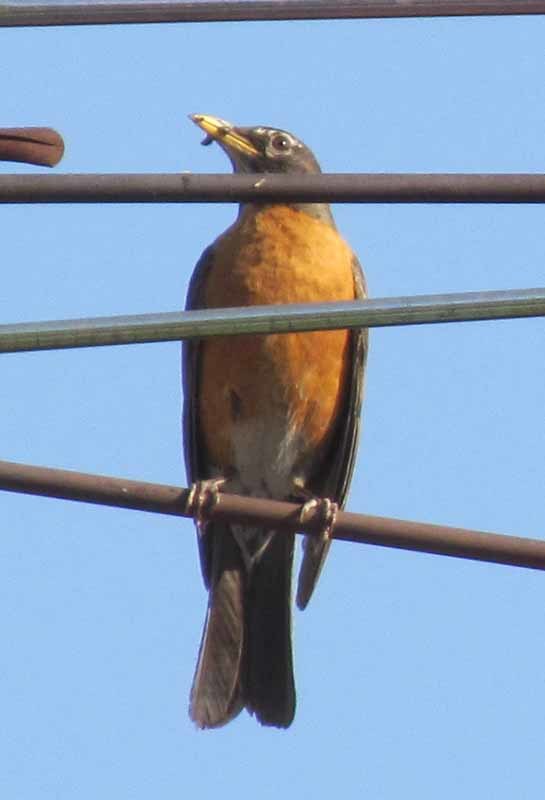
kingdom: Animalia
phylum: Chordata
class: Aves
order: Passeriformes
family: Turdidae
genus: Turdus
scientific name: Turdus migratorius
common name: American robin
